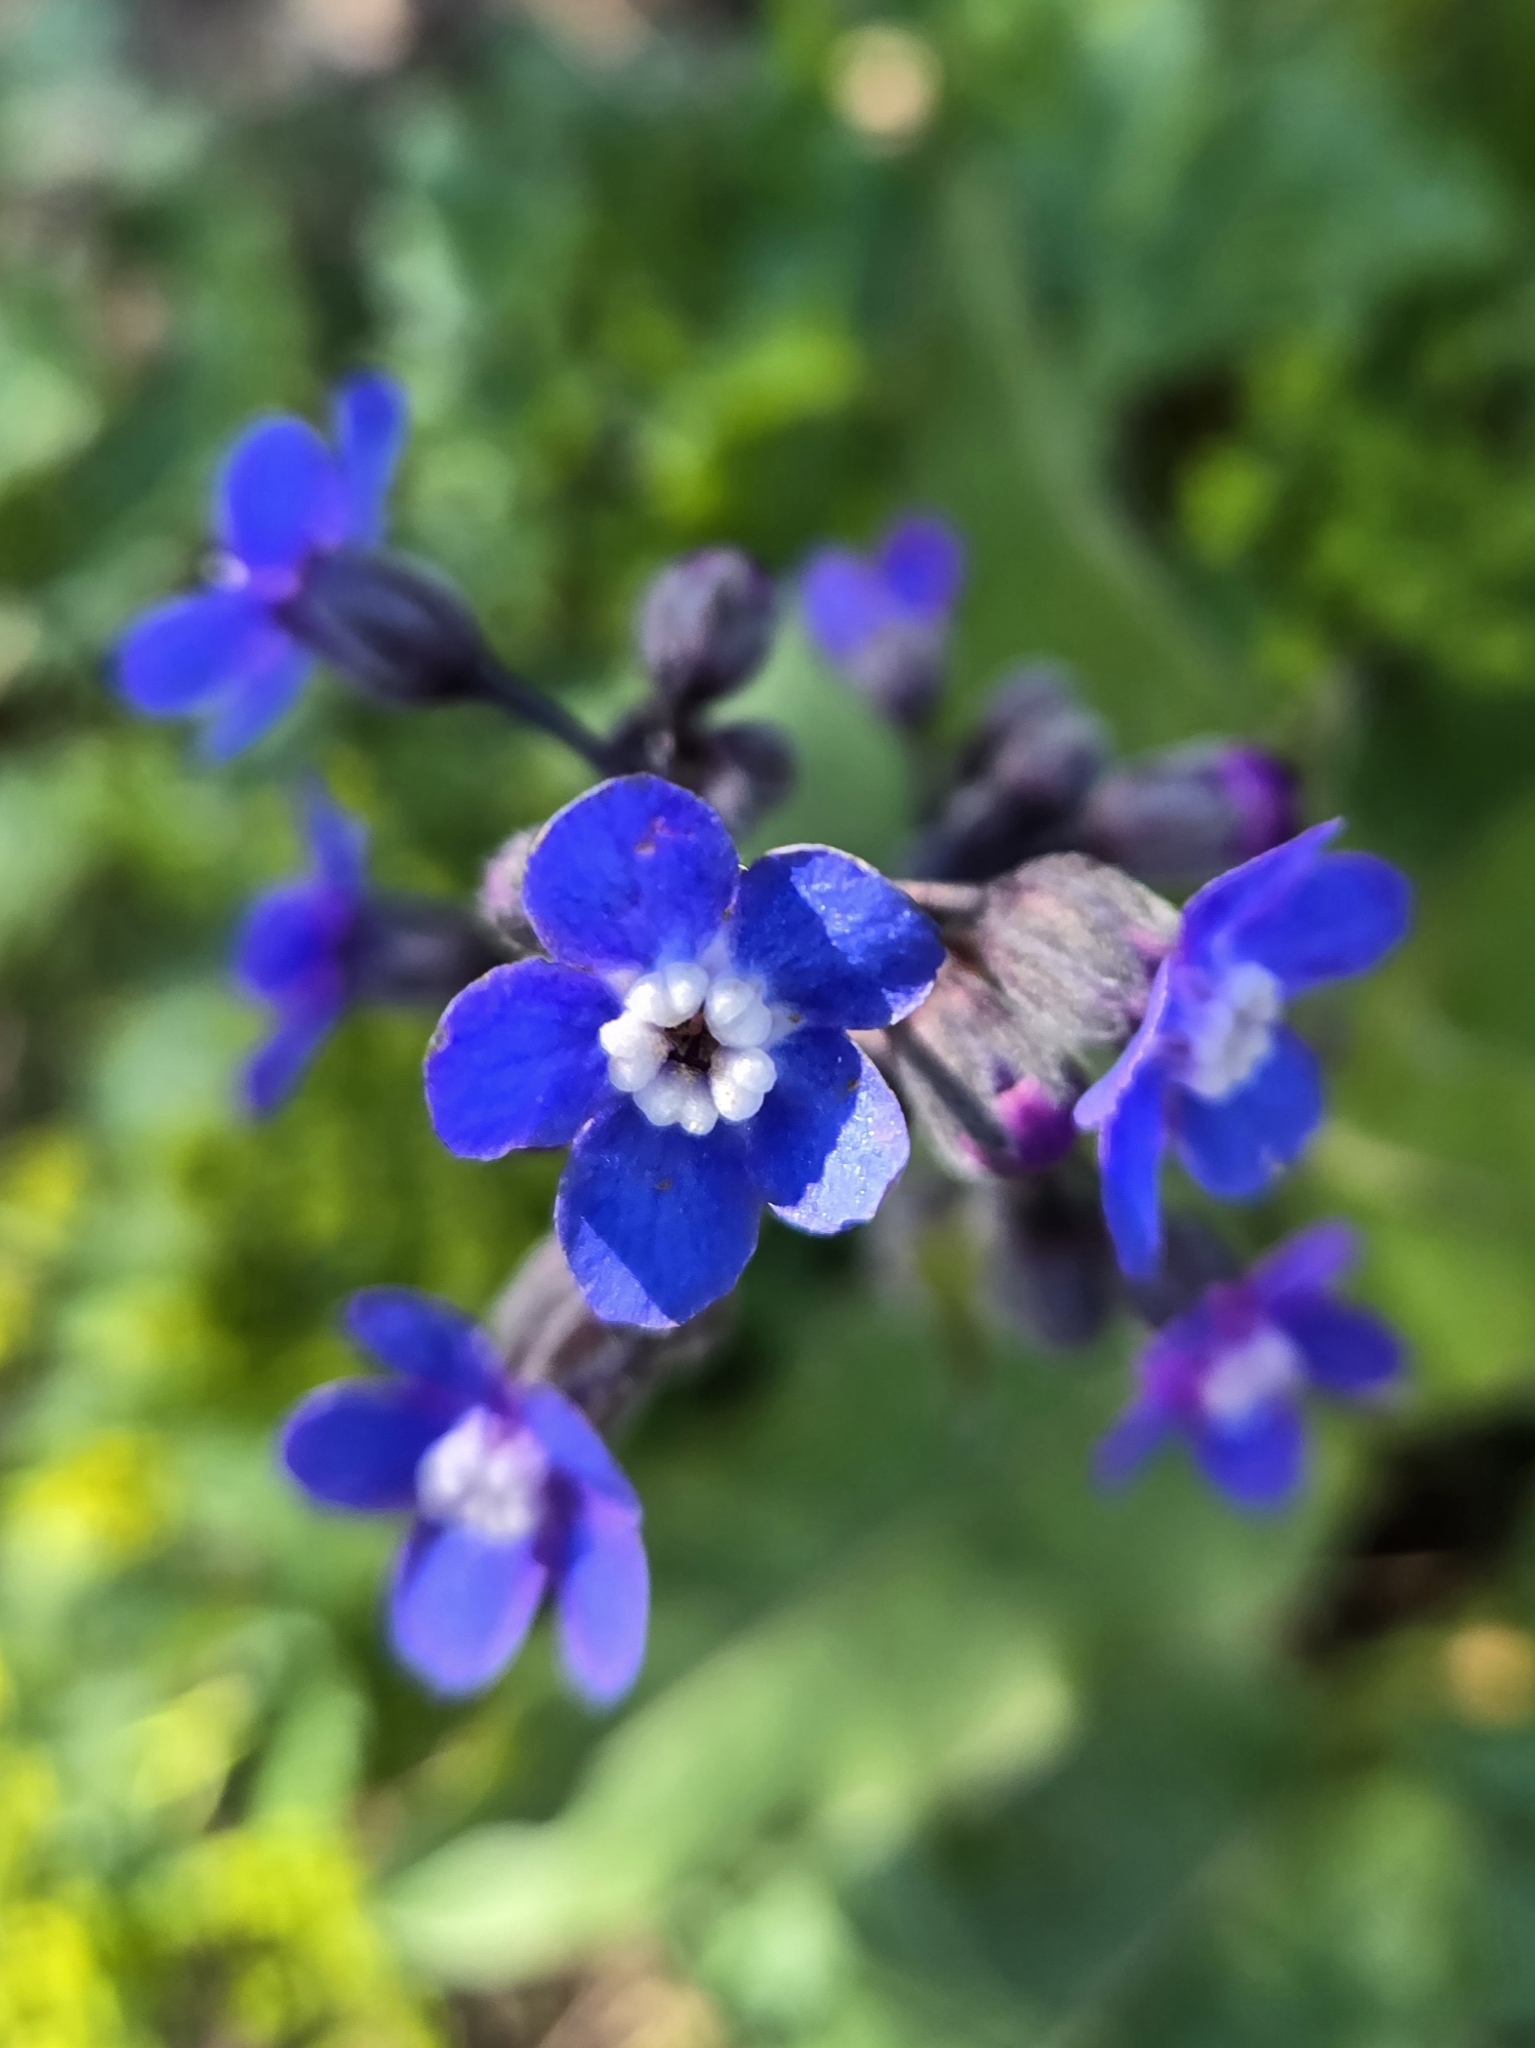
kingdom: Plantae
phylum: Tracheophyta
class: Magnoliopsida
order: Boraginales
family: Boraginaceae
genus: Adelinia
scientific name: Adelinia grande
